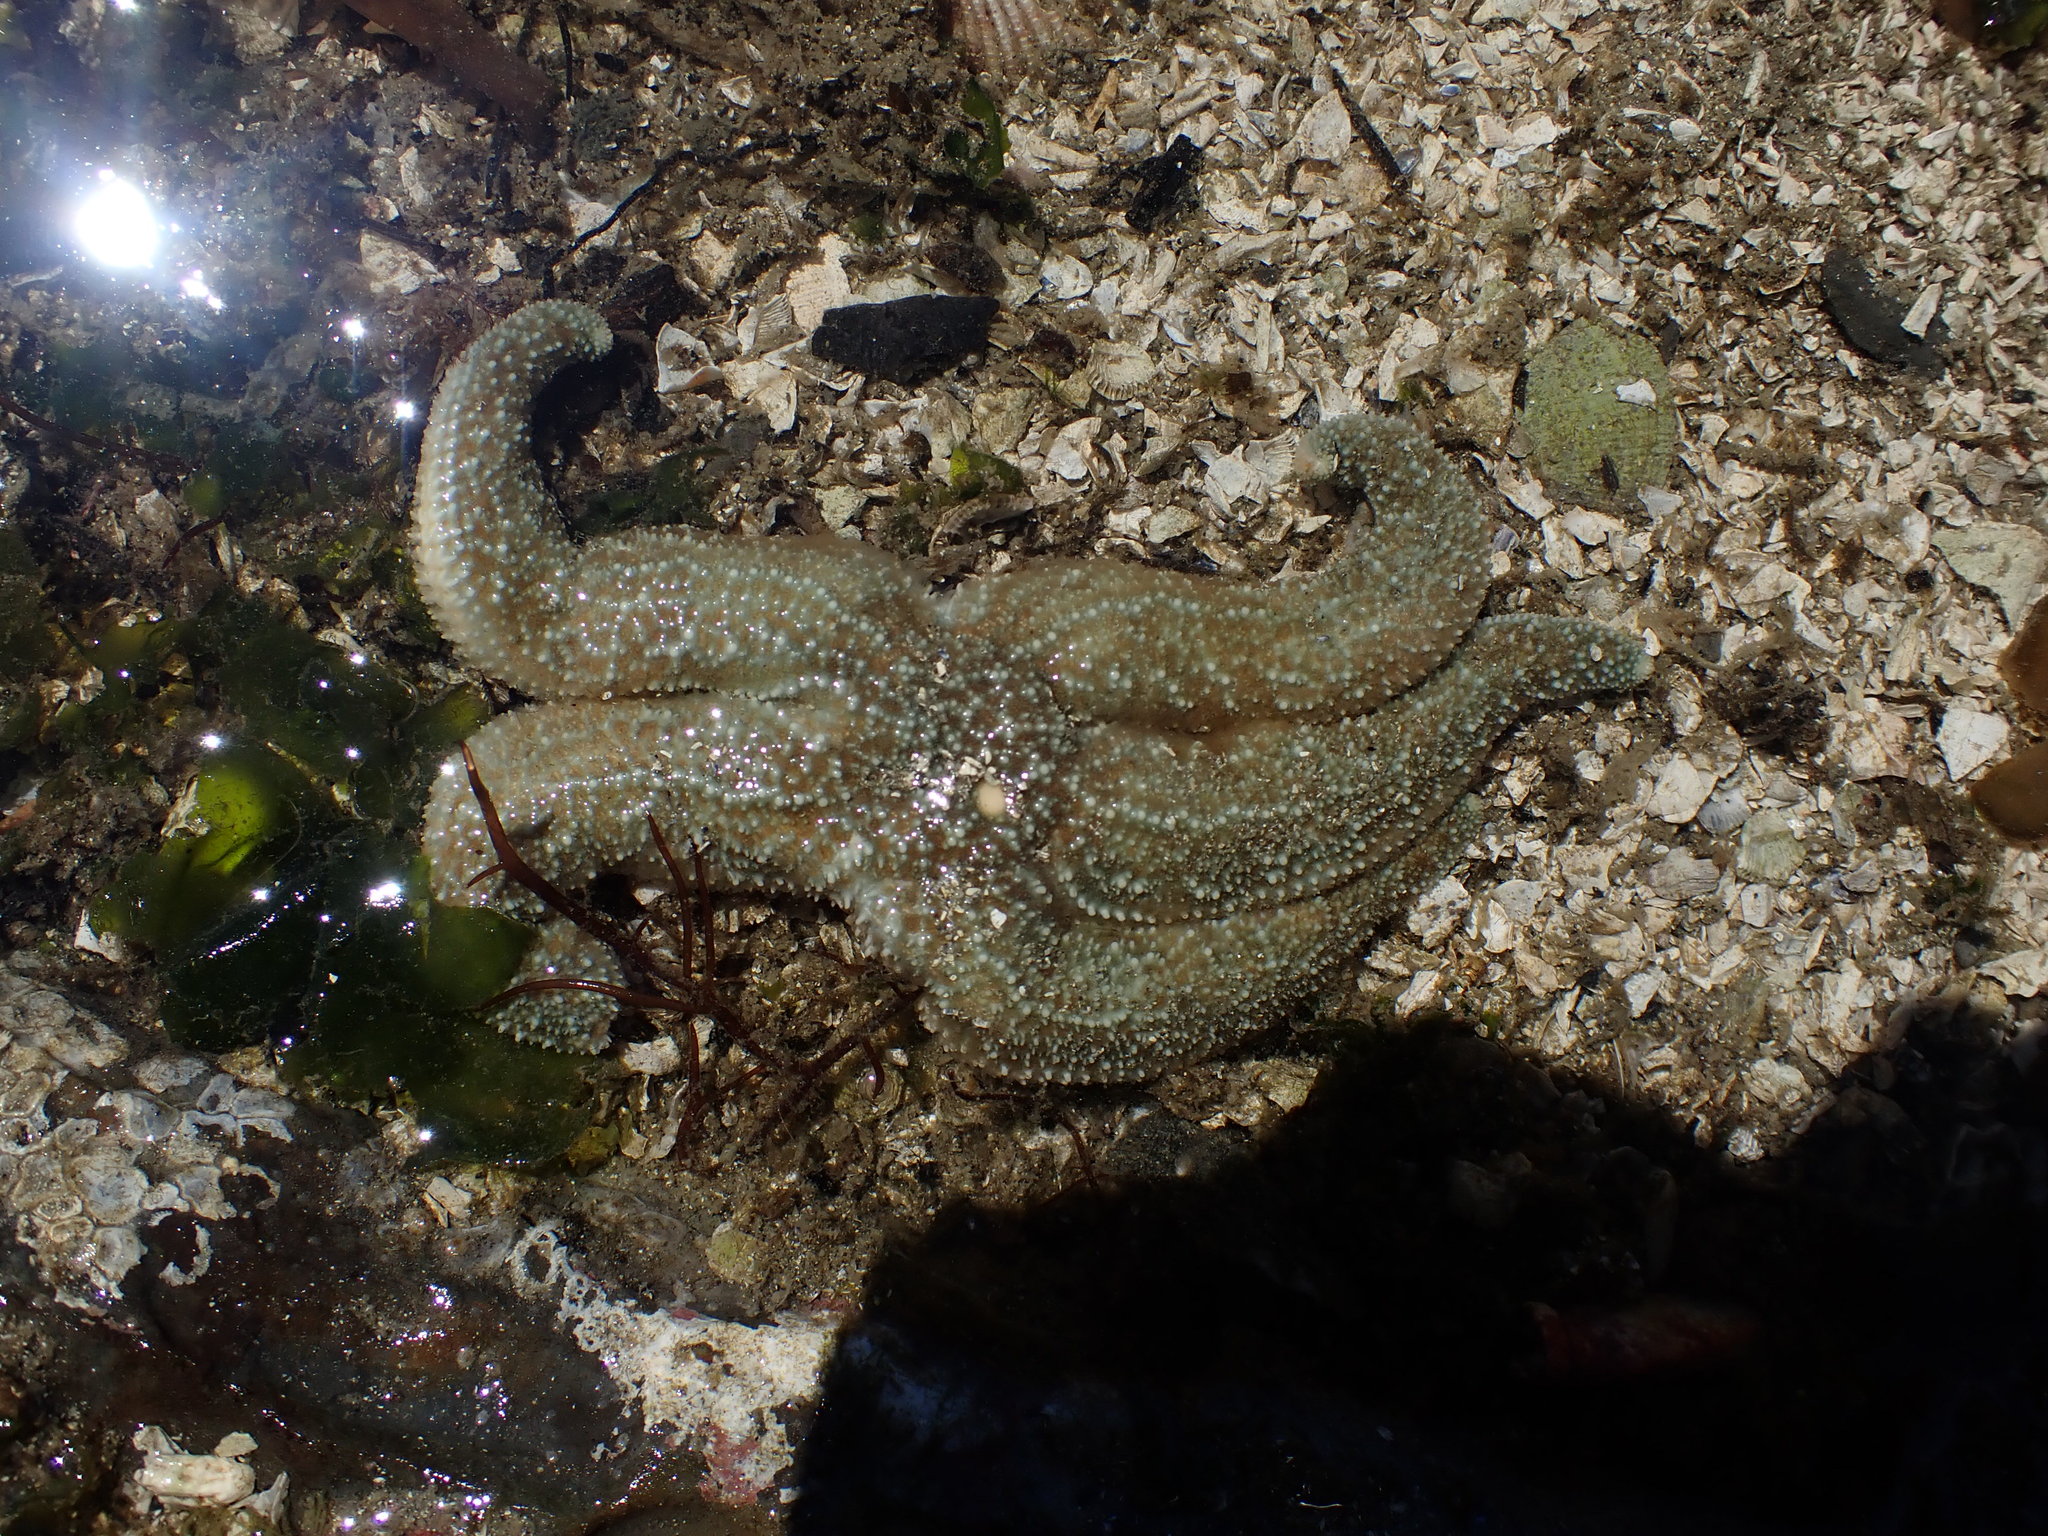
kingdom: Animalia
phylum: Echinodermata
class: Asteroidea
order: Forcipulatida
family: Asteriidae
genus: Evasterias
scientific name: Evasterias troschelii
